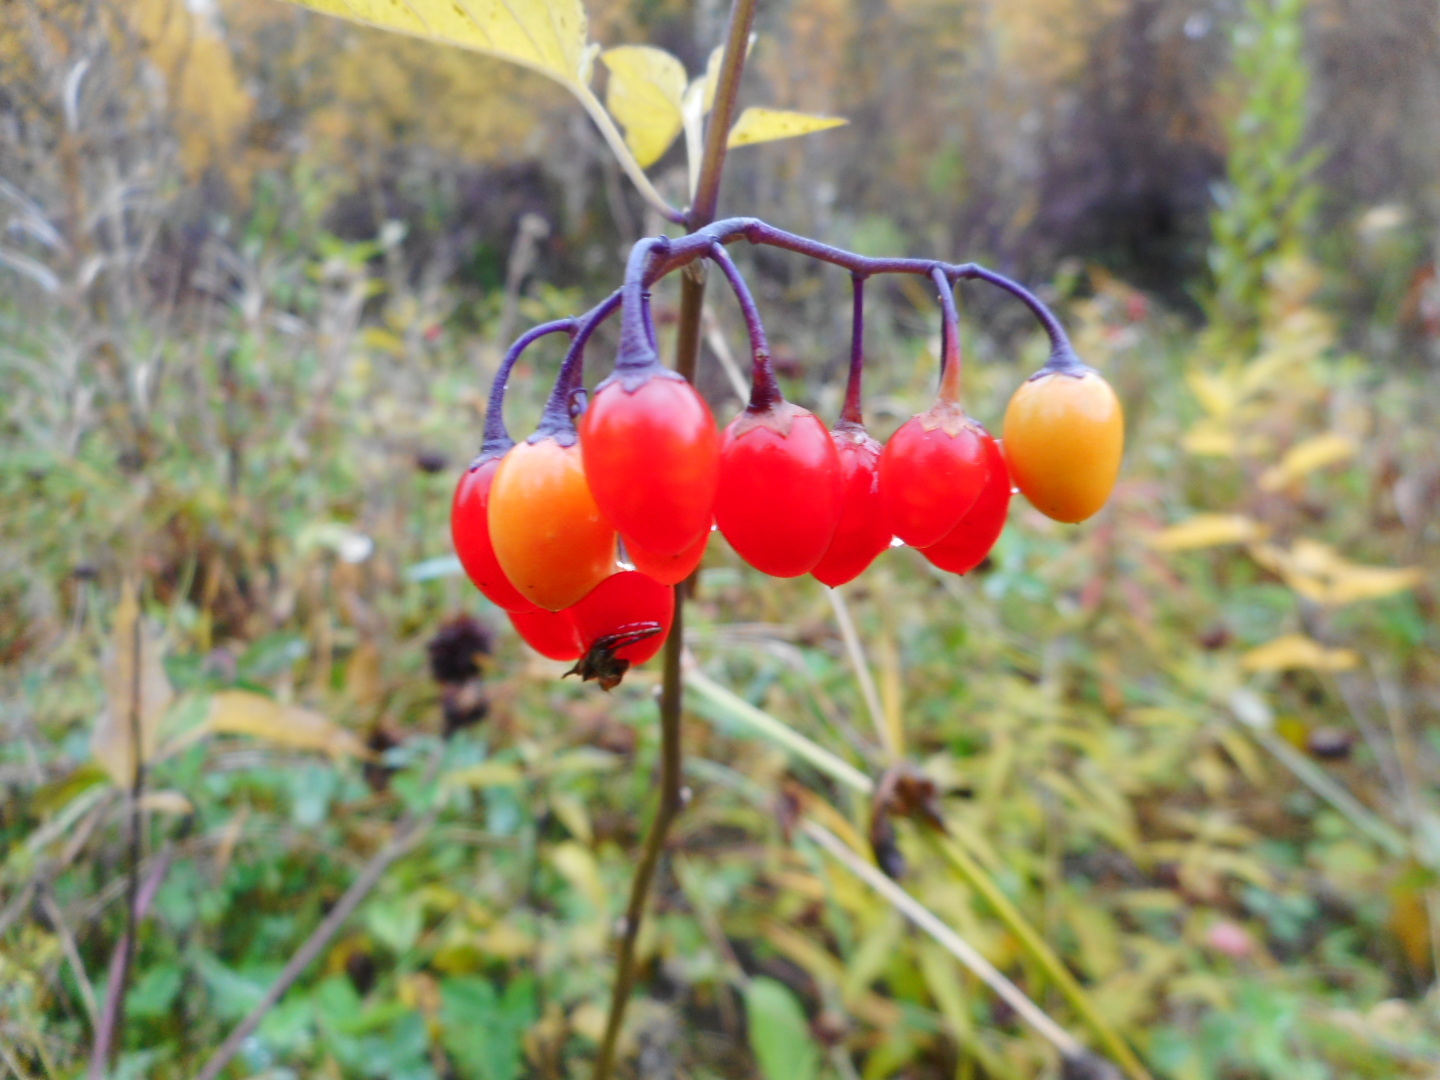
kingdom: Plantae
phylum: Tracheophyta
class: Magnoliopsida
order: Solanales
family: Solanaceae
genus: Solanum
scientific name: Solanum dulcamara
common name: Climbing nightshade
